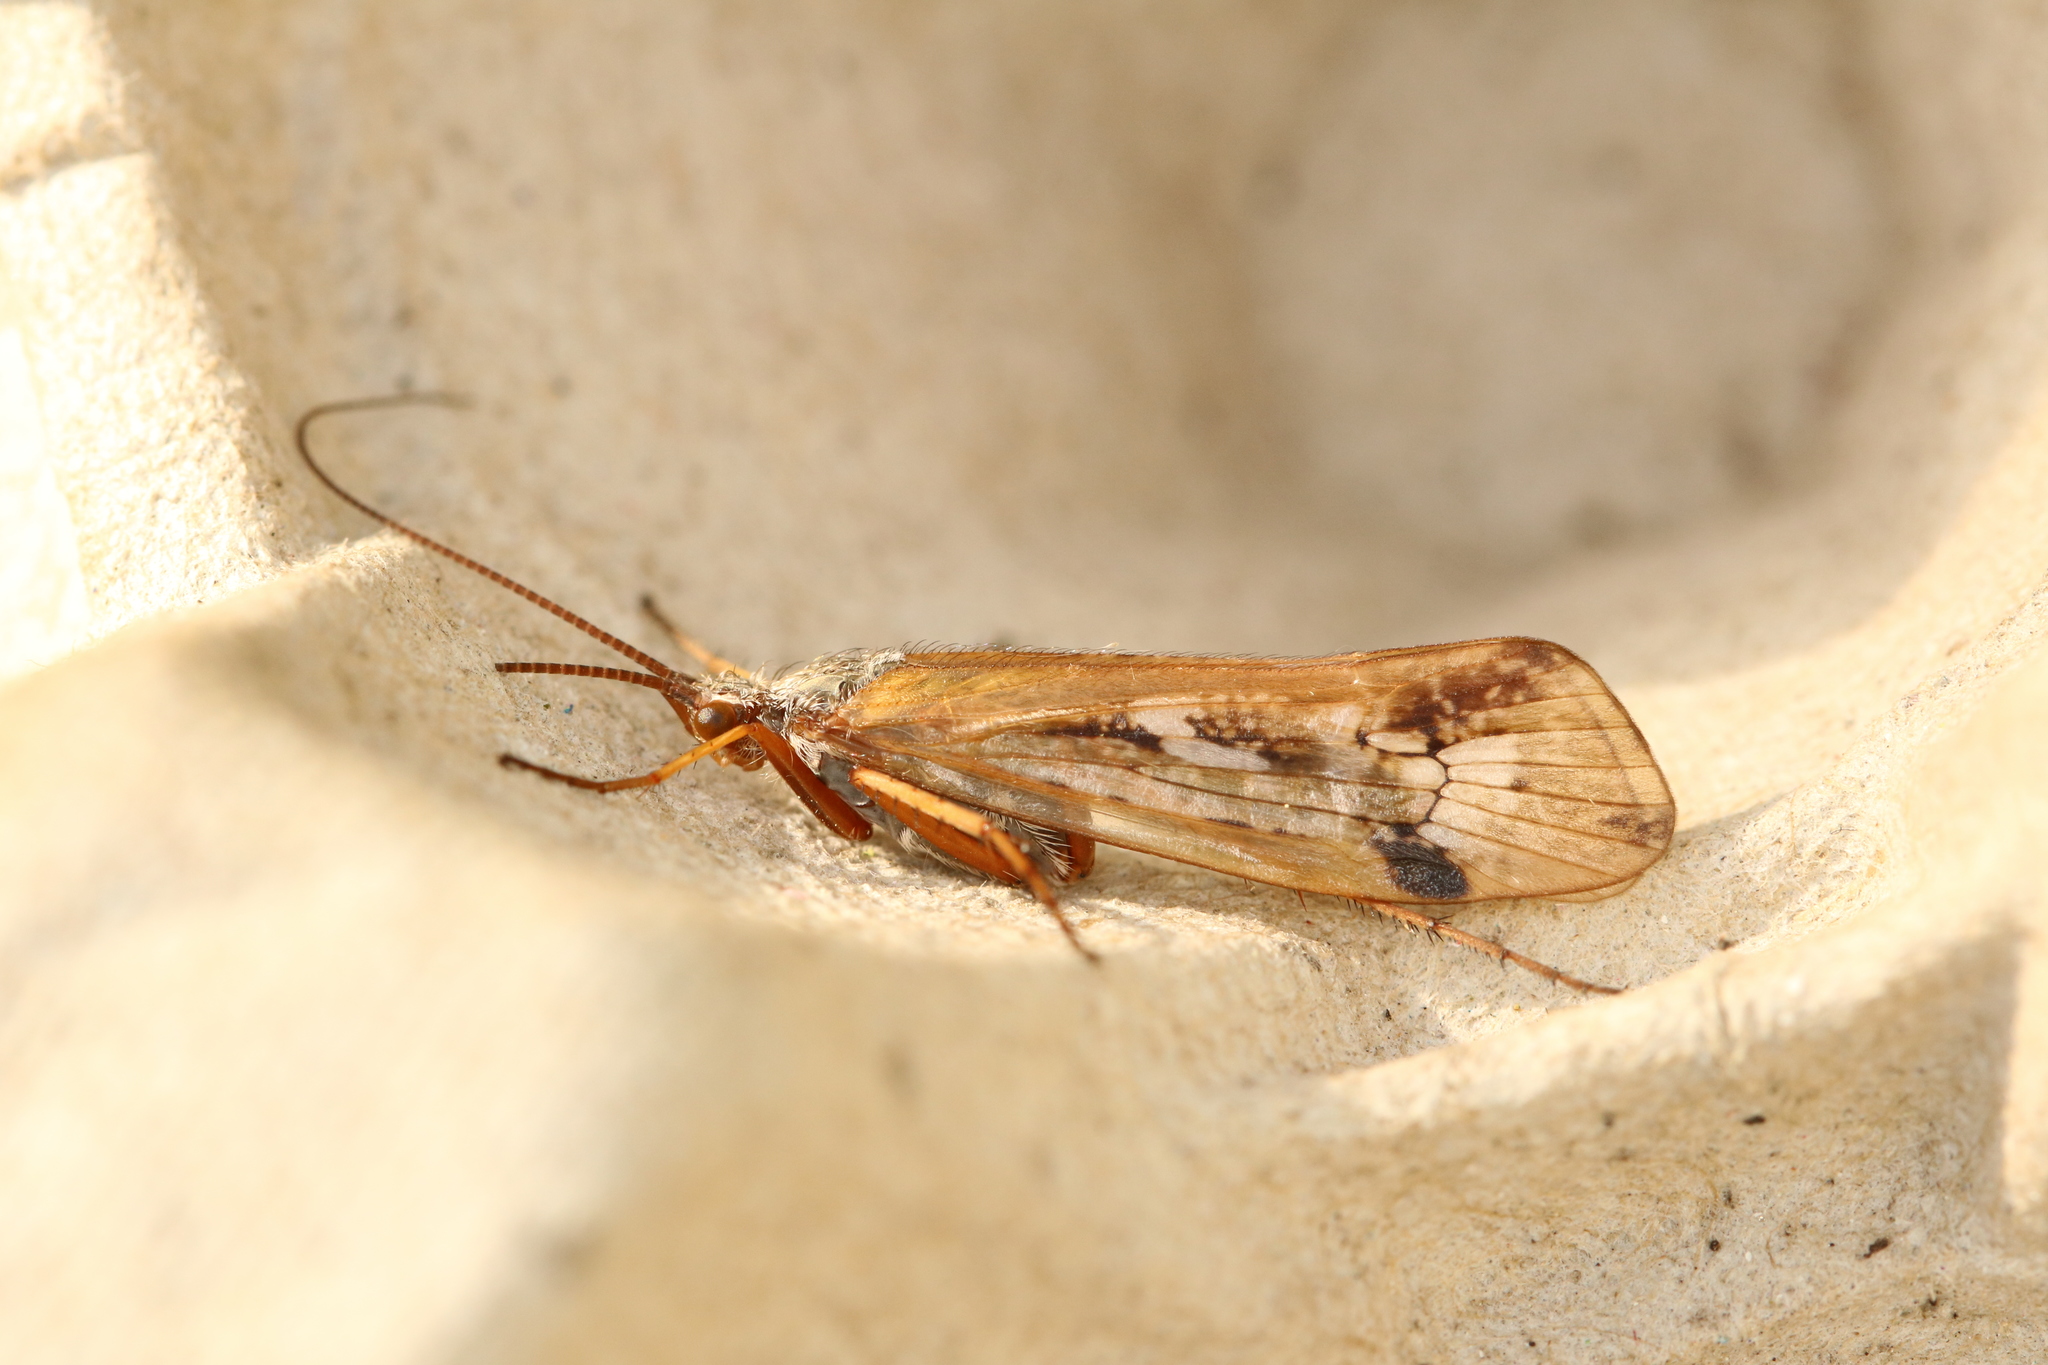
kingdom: Animalia
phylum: Arthropoda
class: Insecta
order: Trichoptera
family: Limnephilidae
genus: Limnephilus
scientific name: Limnephilus binotatus
